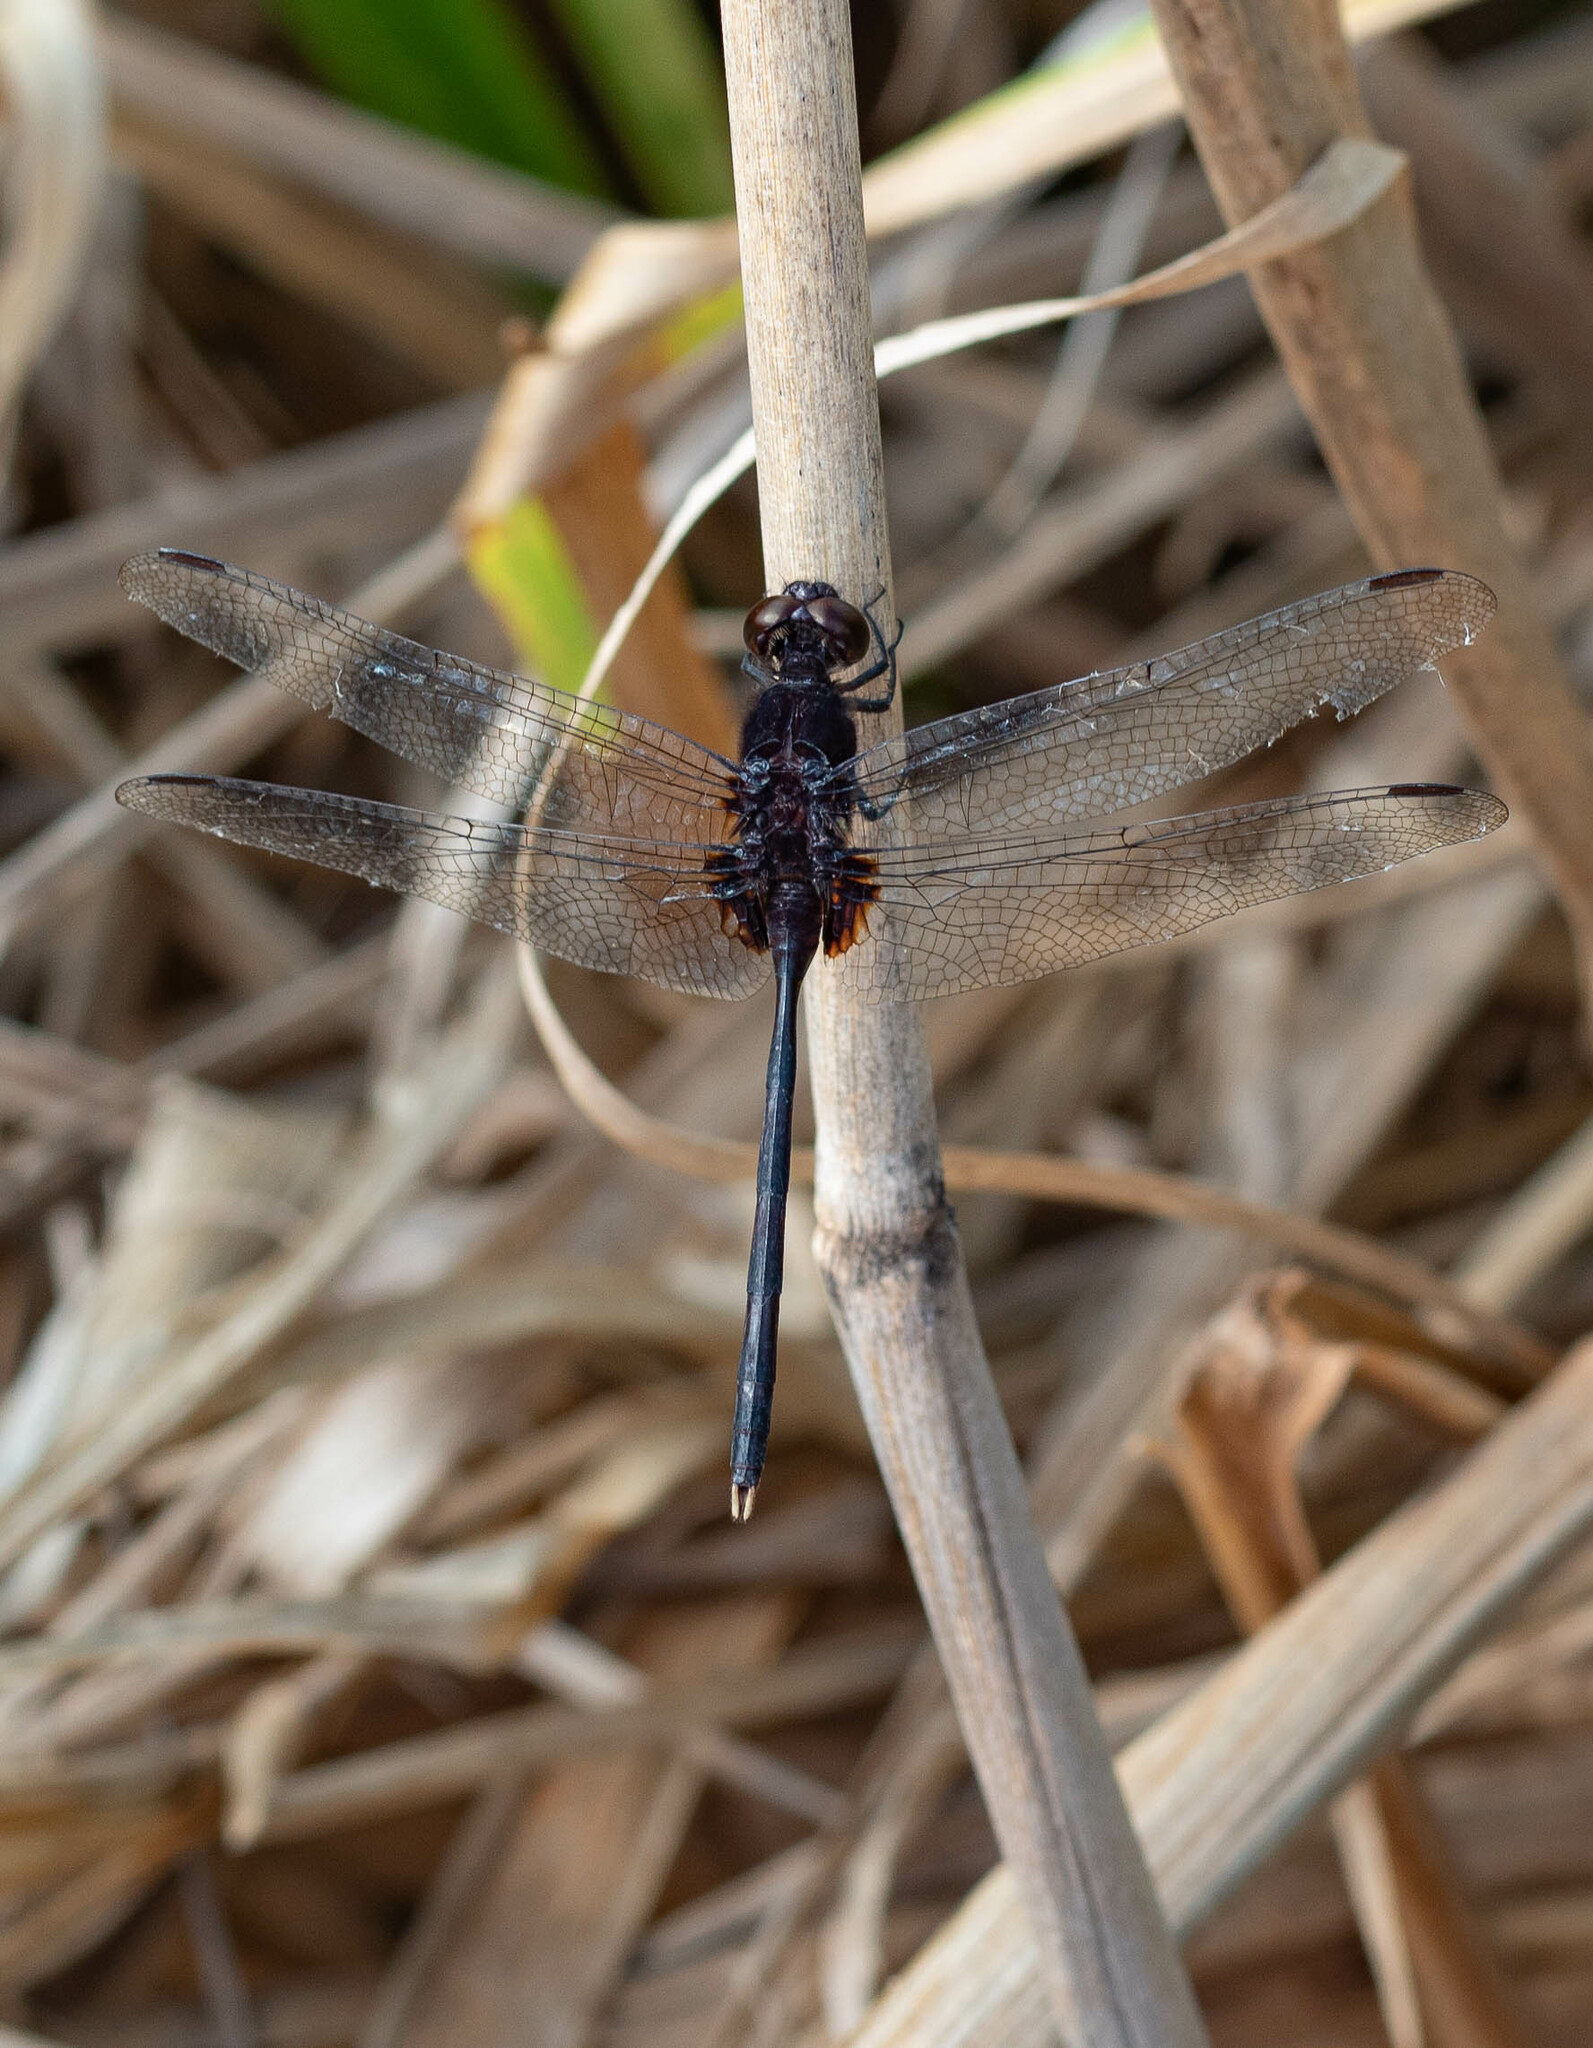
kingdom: Animalia
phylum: Arthropoda
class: Insecta
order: Odonata
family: Libellulidae
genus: Erythemis
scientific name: Erythemis plebeja
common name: Pin-tailed pondhawk
